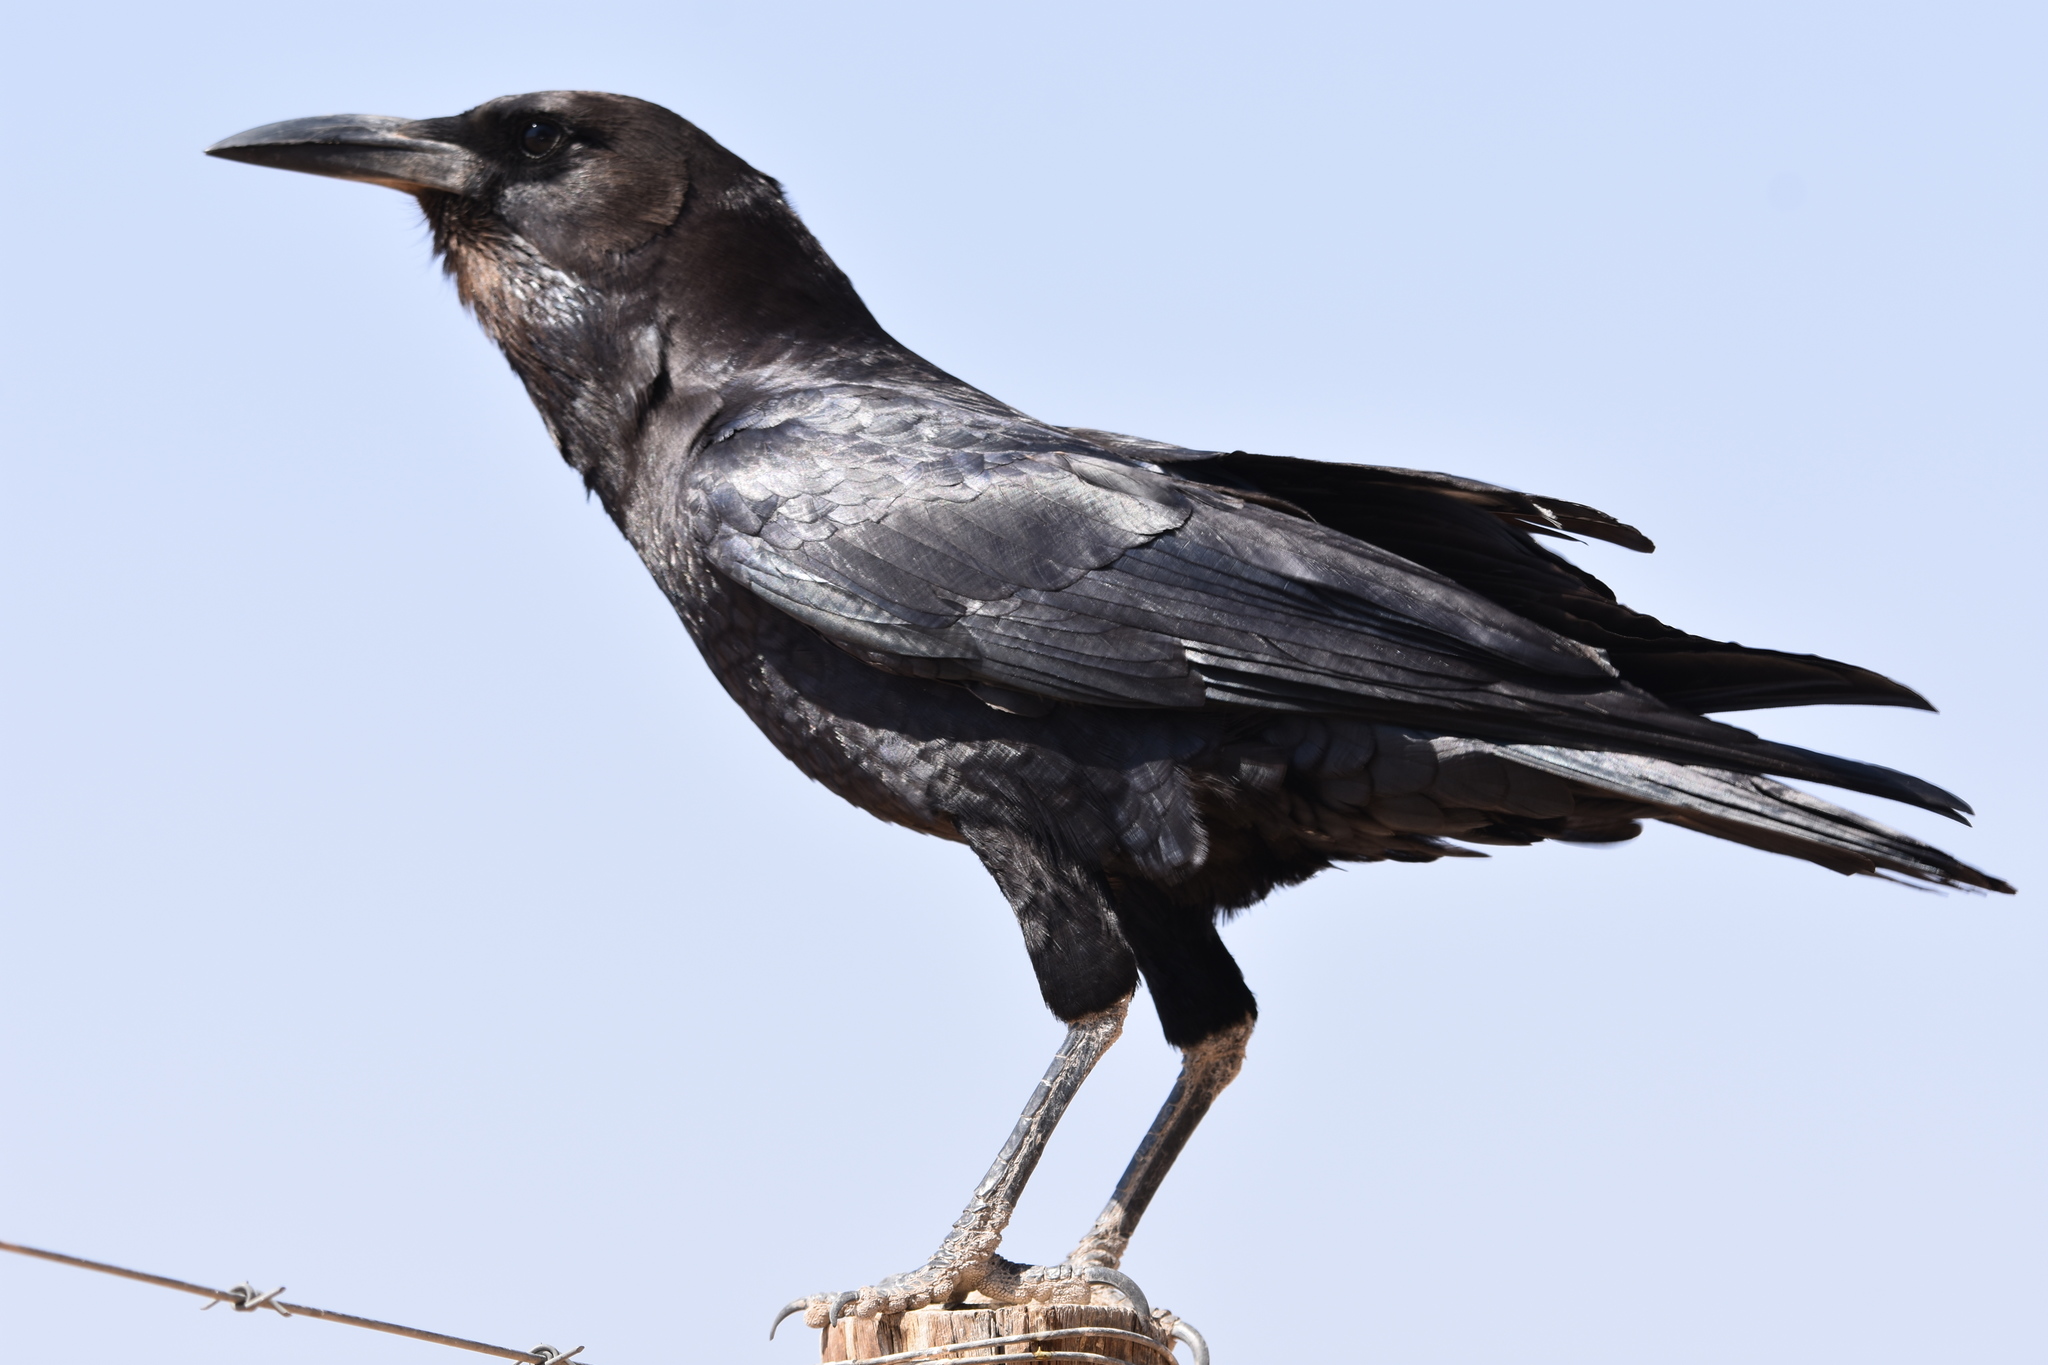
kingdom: Animalia
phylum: Chordata
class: Aves
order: Passeriformes
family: Corvidae
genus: Corvus
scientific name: Corvus capensis
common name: Cape crow
